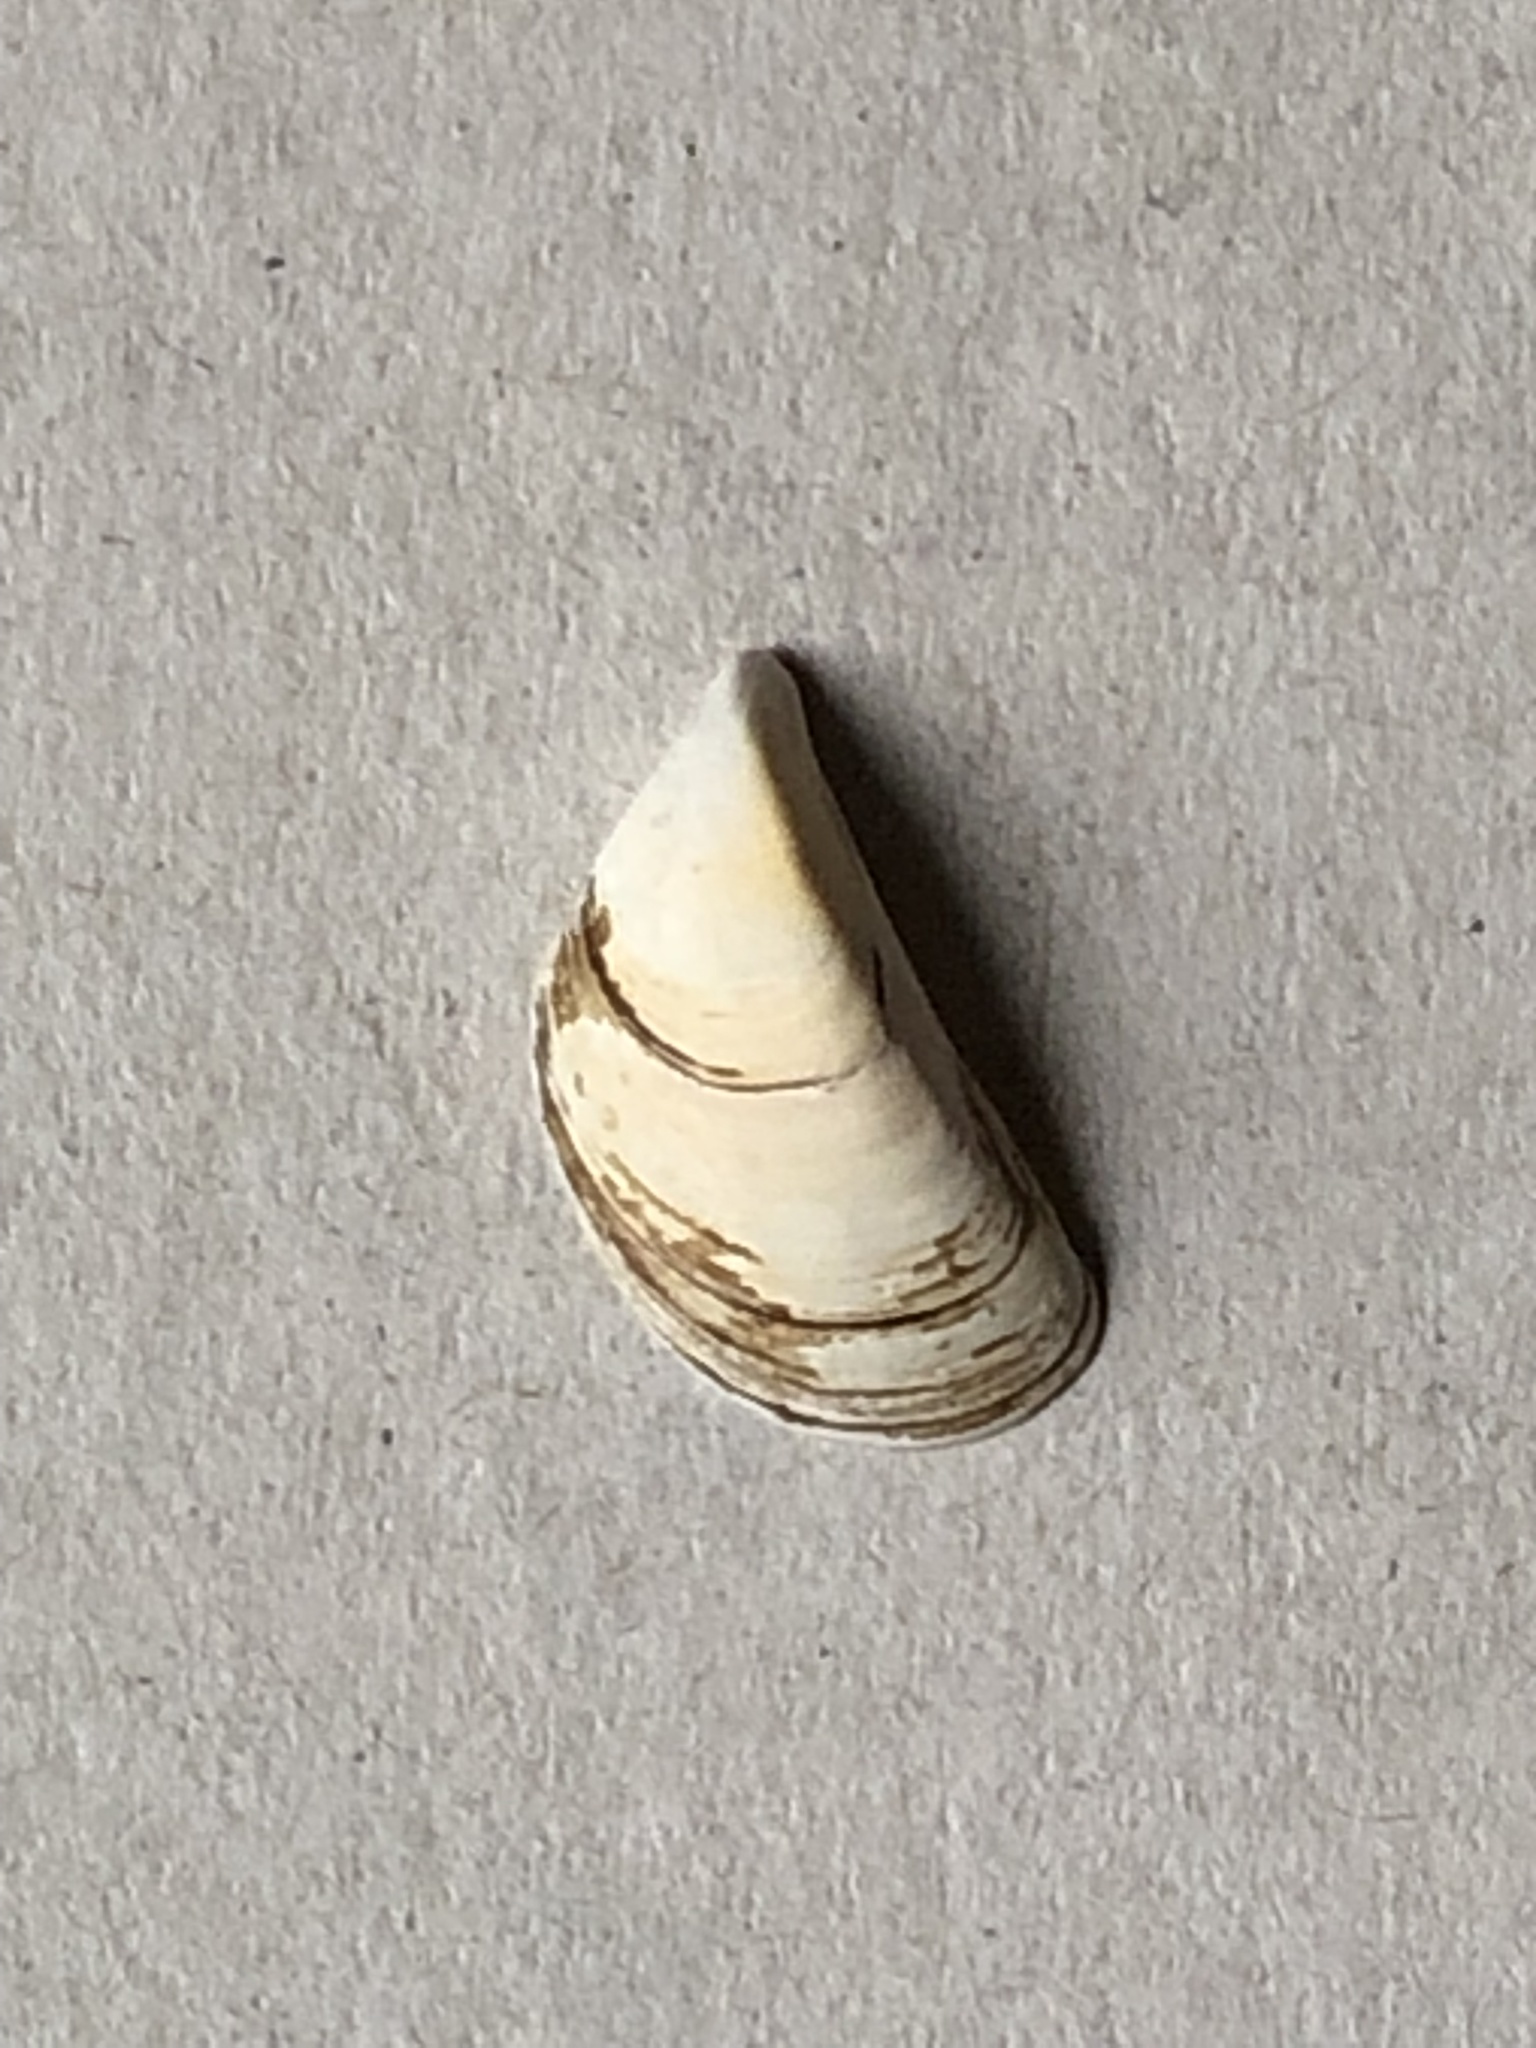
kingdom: Animalia
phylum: Mollusca
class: Bivalvia
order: Myida
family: Dreissenidae
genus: Dreissena
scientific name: Dreissena polymorpha
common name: Zebra mussel
